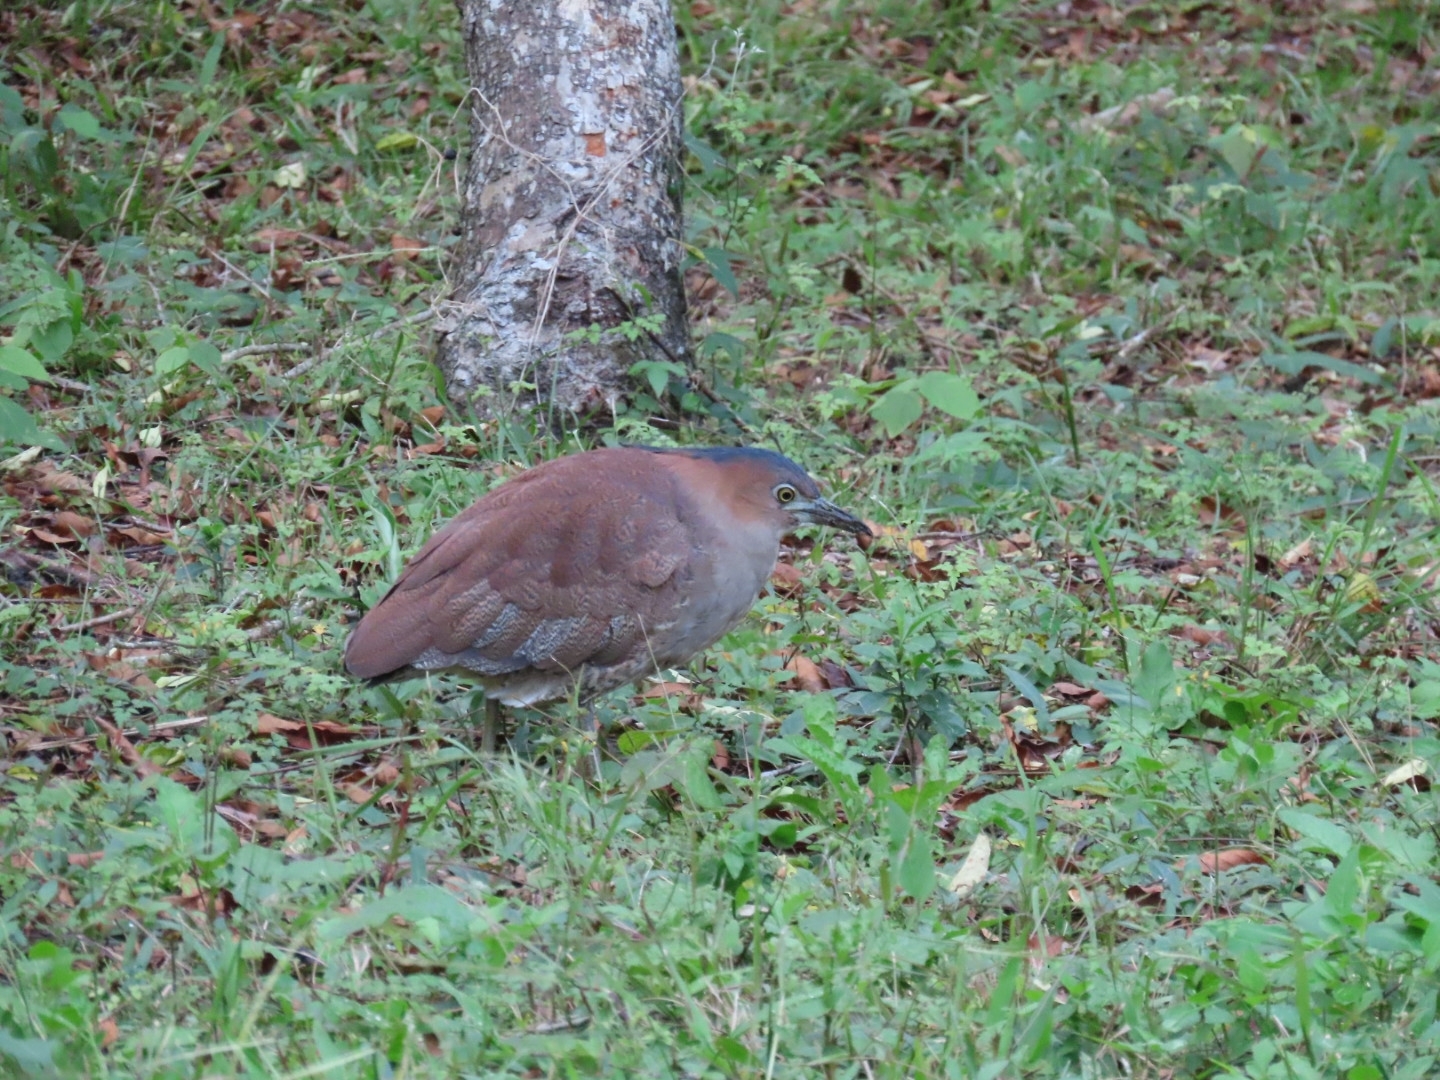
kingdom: Animalia
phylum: Chordata
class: Aves
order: Pelecaniformes
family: Ardeidae
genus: Gorsachius
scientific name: Gorsachius melanolophus
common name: Malayan night heron
